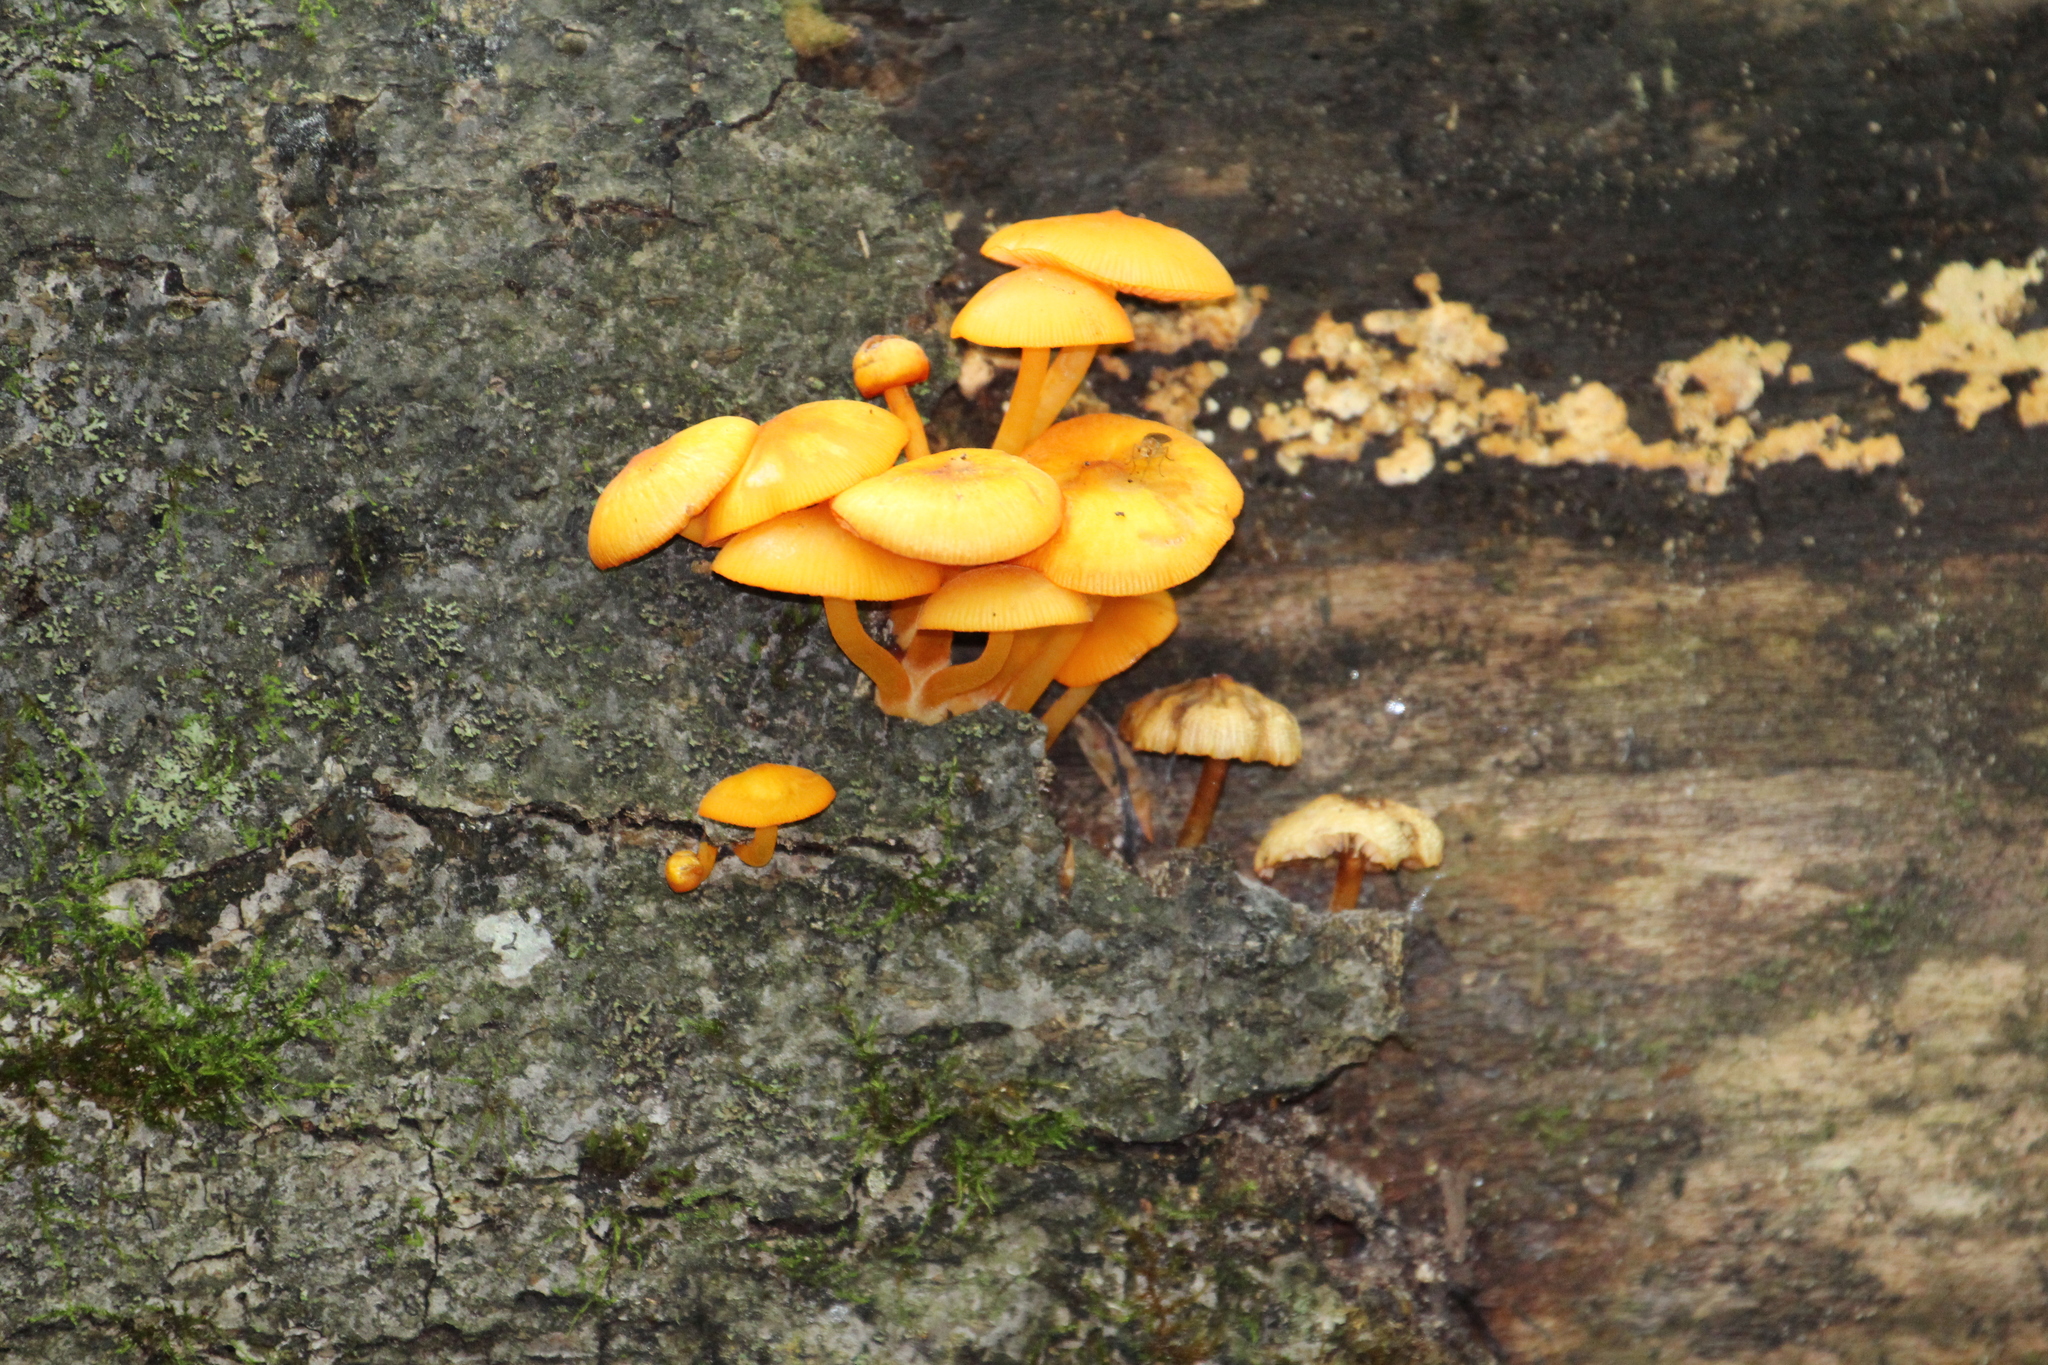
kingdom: Fungi
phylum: Basidiomycota
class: Agaricomycetes
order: Agaricales
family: Mycenaceae
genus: Mycena
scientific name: Mycena leaiana
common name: Orange mycena
